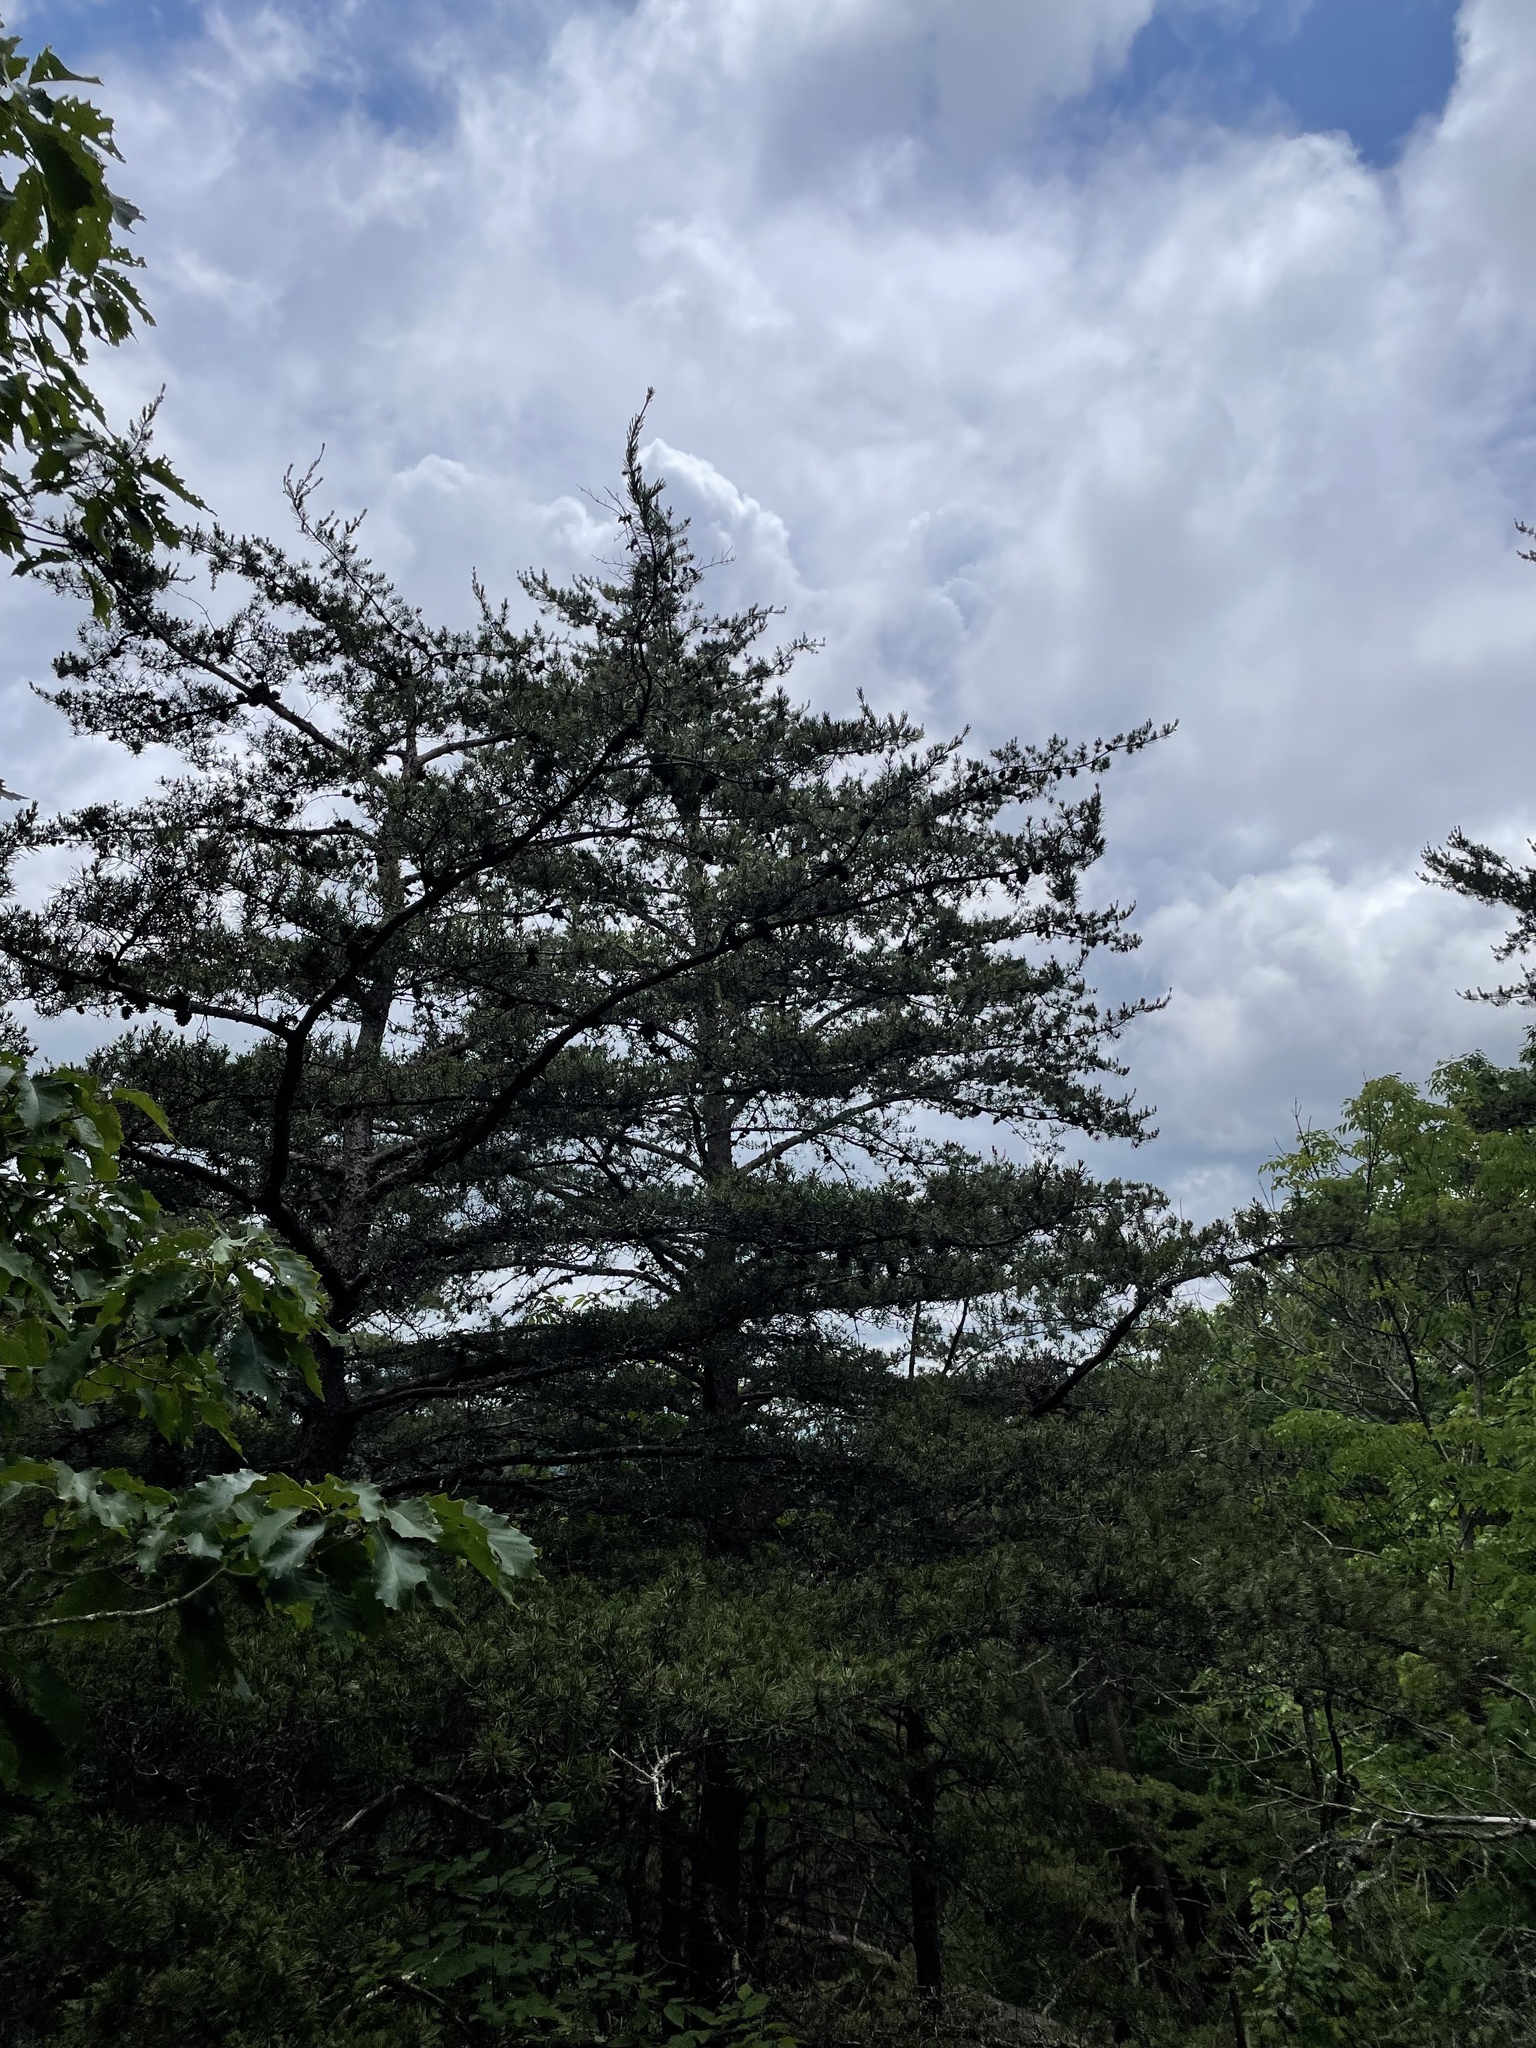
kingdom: Plantae
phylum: Tracheophyta
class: Pinopsida
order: Pinales
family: Pinaceae
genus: Pinus
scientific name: Pinus virginiana
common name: Scrub pine
